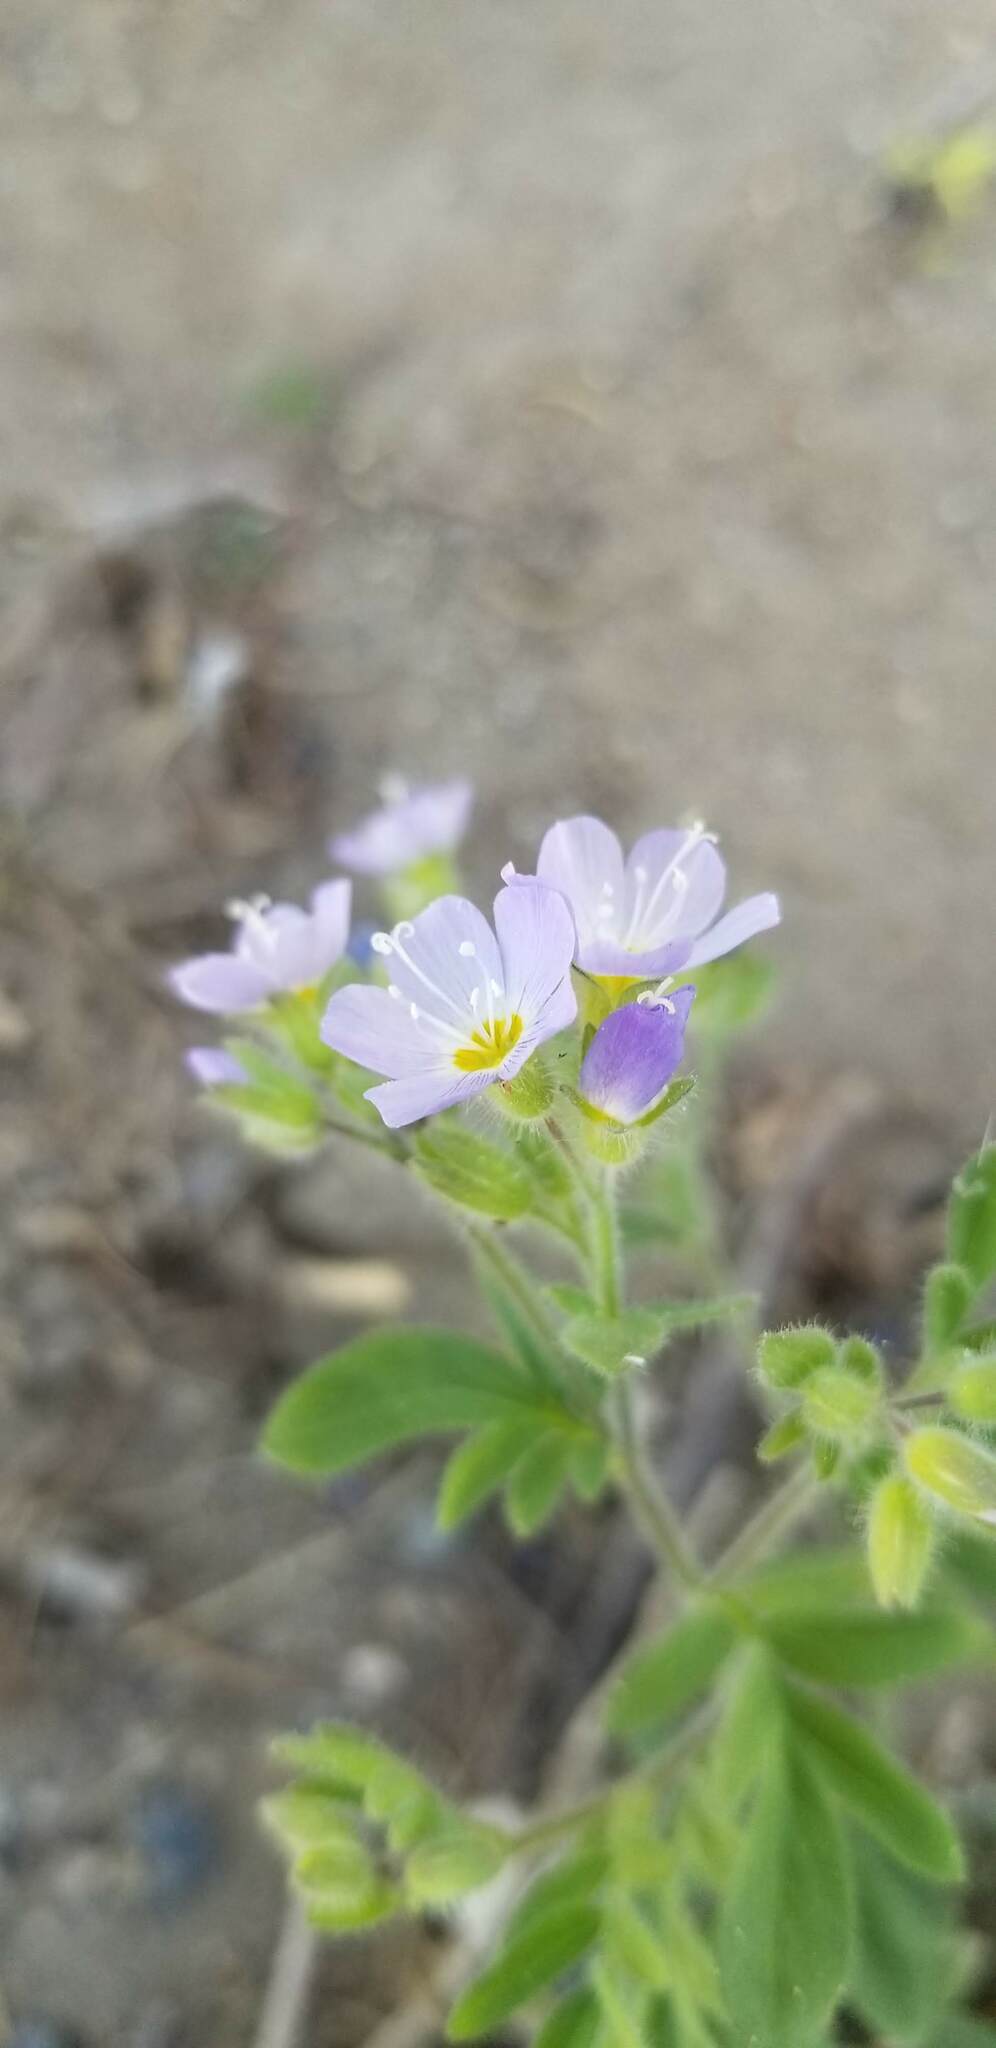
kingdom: Plantae
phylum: Tracheophyta
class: Magnoliopsida
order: Ericales
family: Polemoniaceae
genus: Polemonium
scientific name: Polemonium californicum
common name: California jacob's ladder
